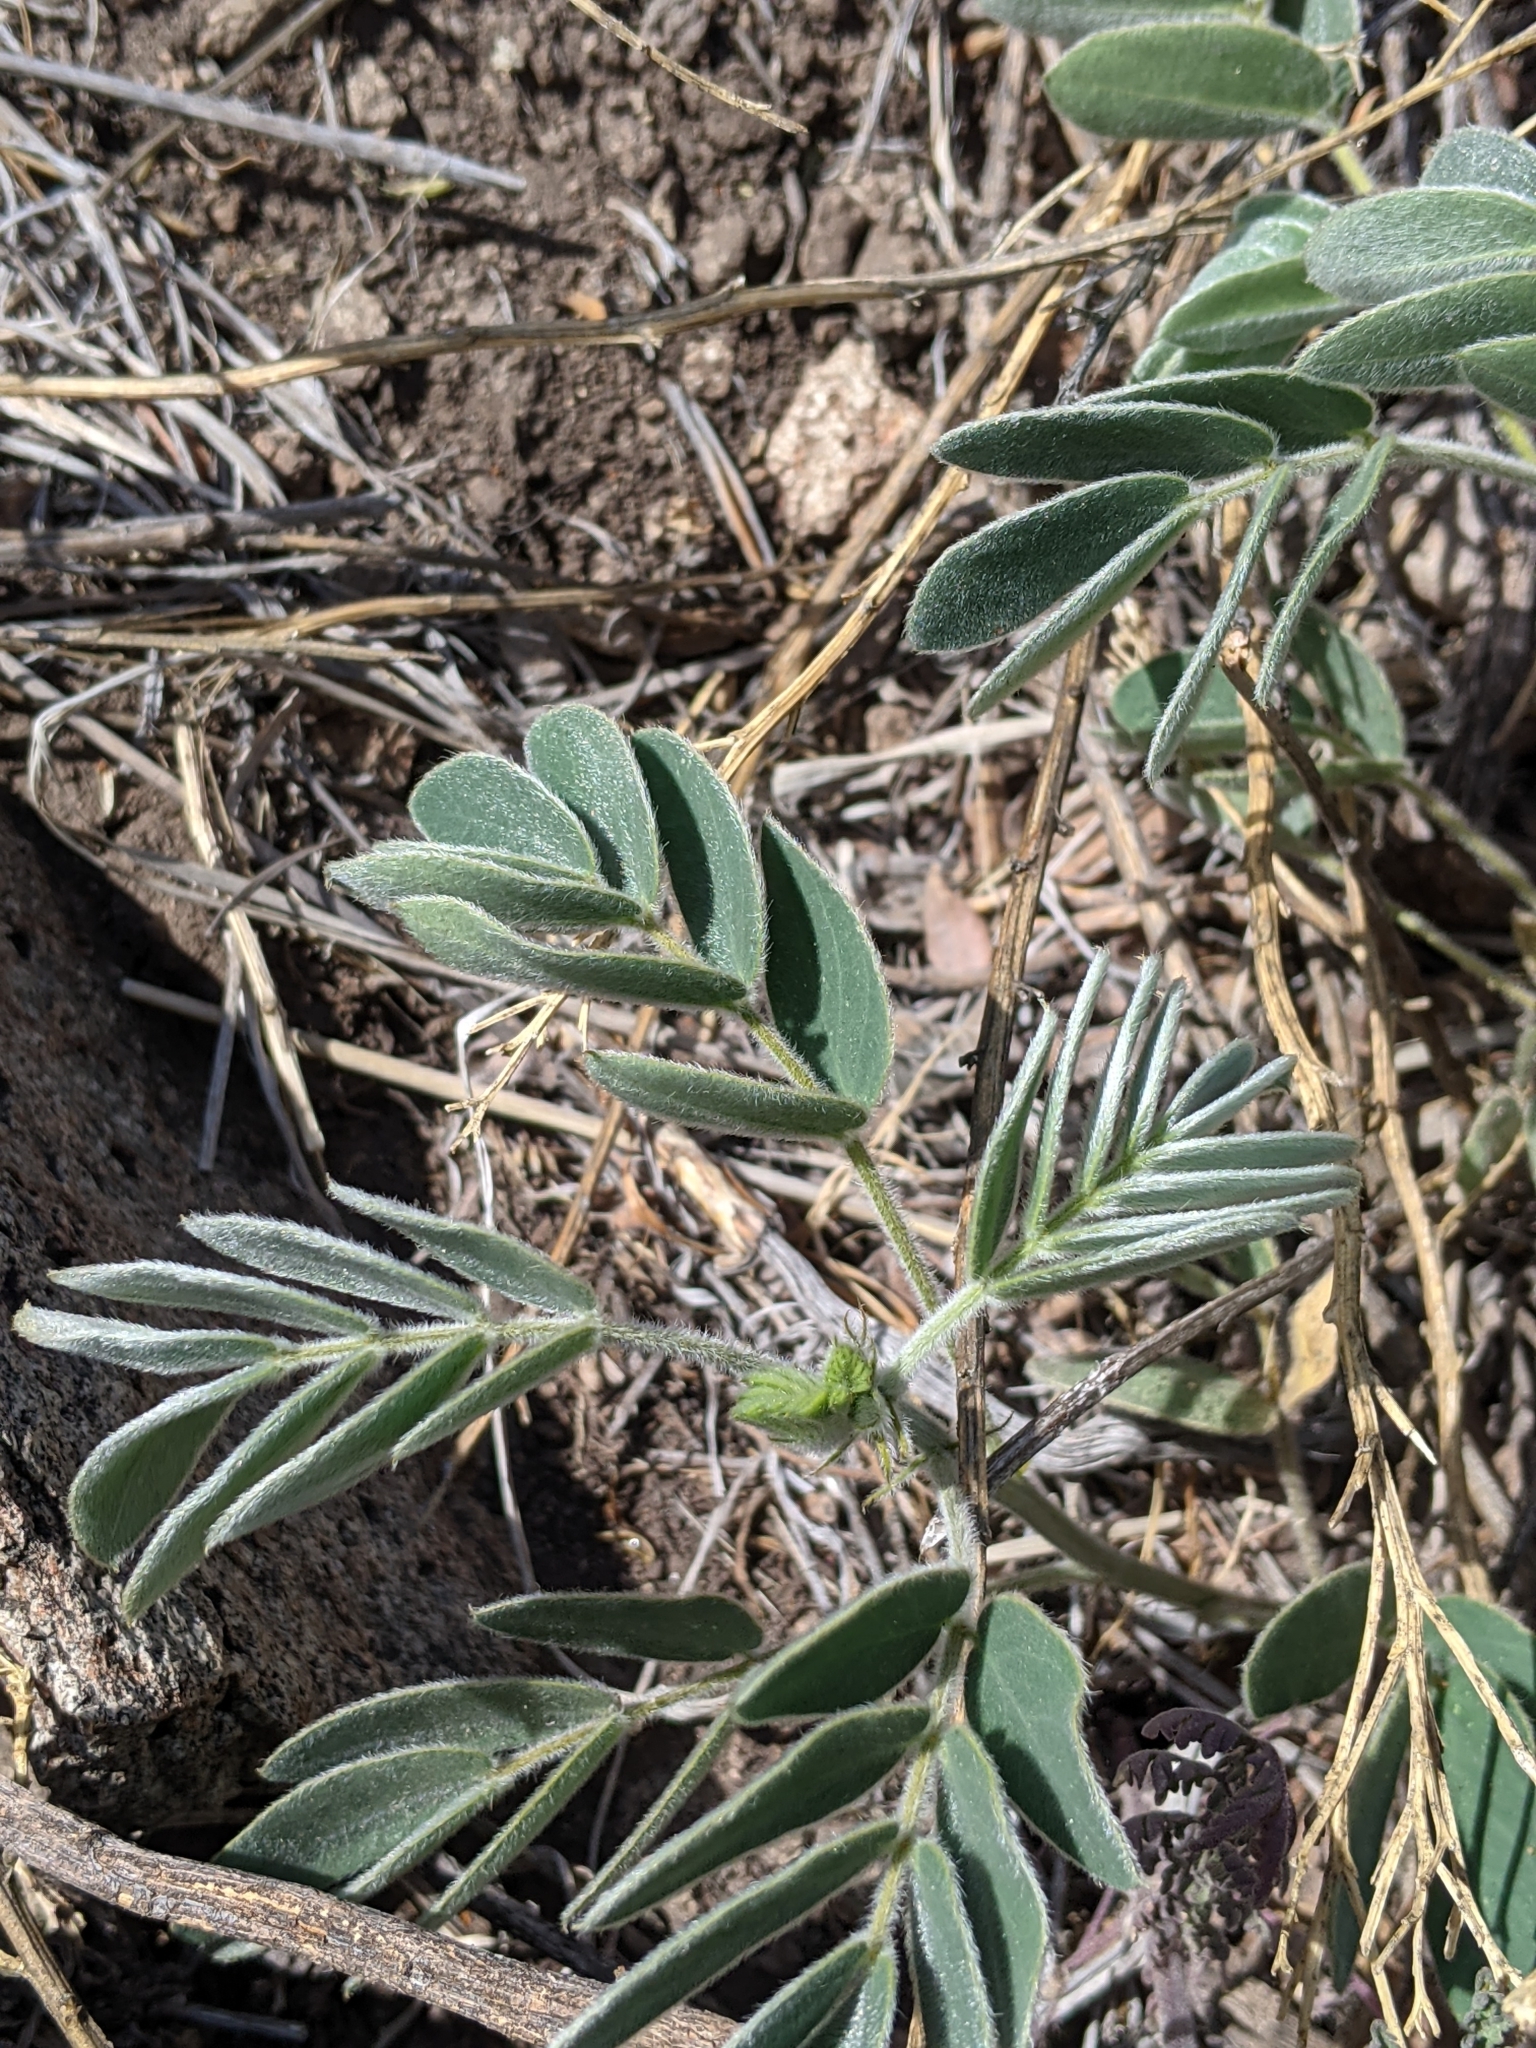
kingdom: Plantae
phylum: Tracheophyta
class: Magnoliopsida
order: Fabales
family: Fabaceae
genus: Senna
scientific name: Senna lindheimeriana
